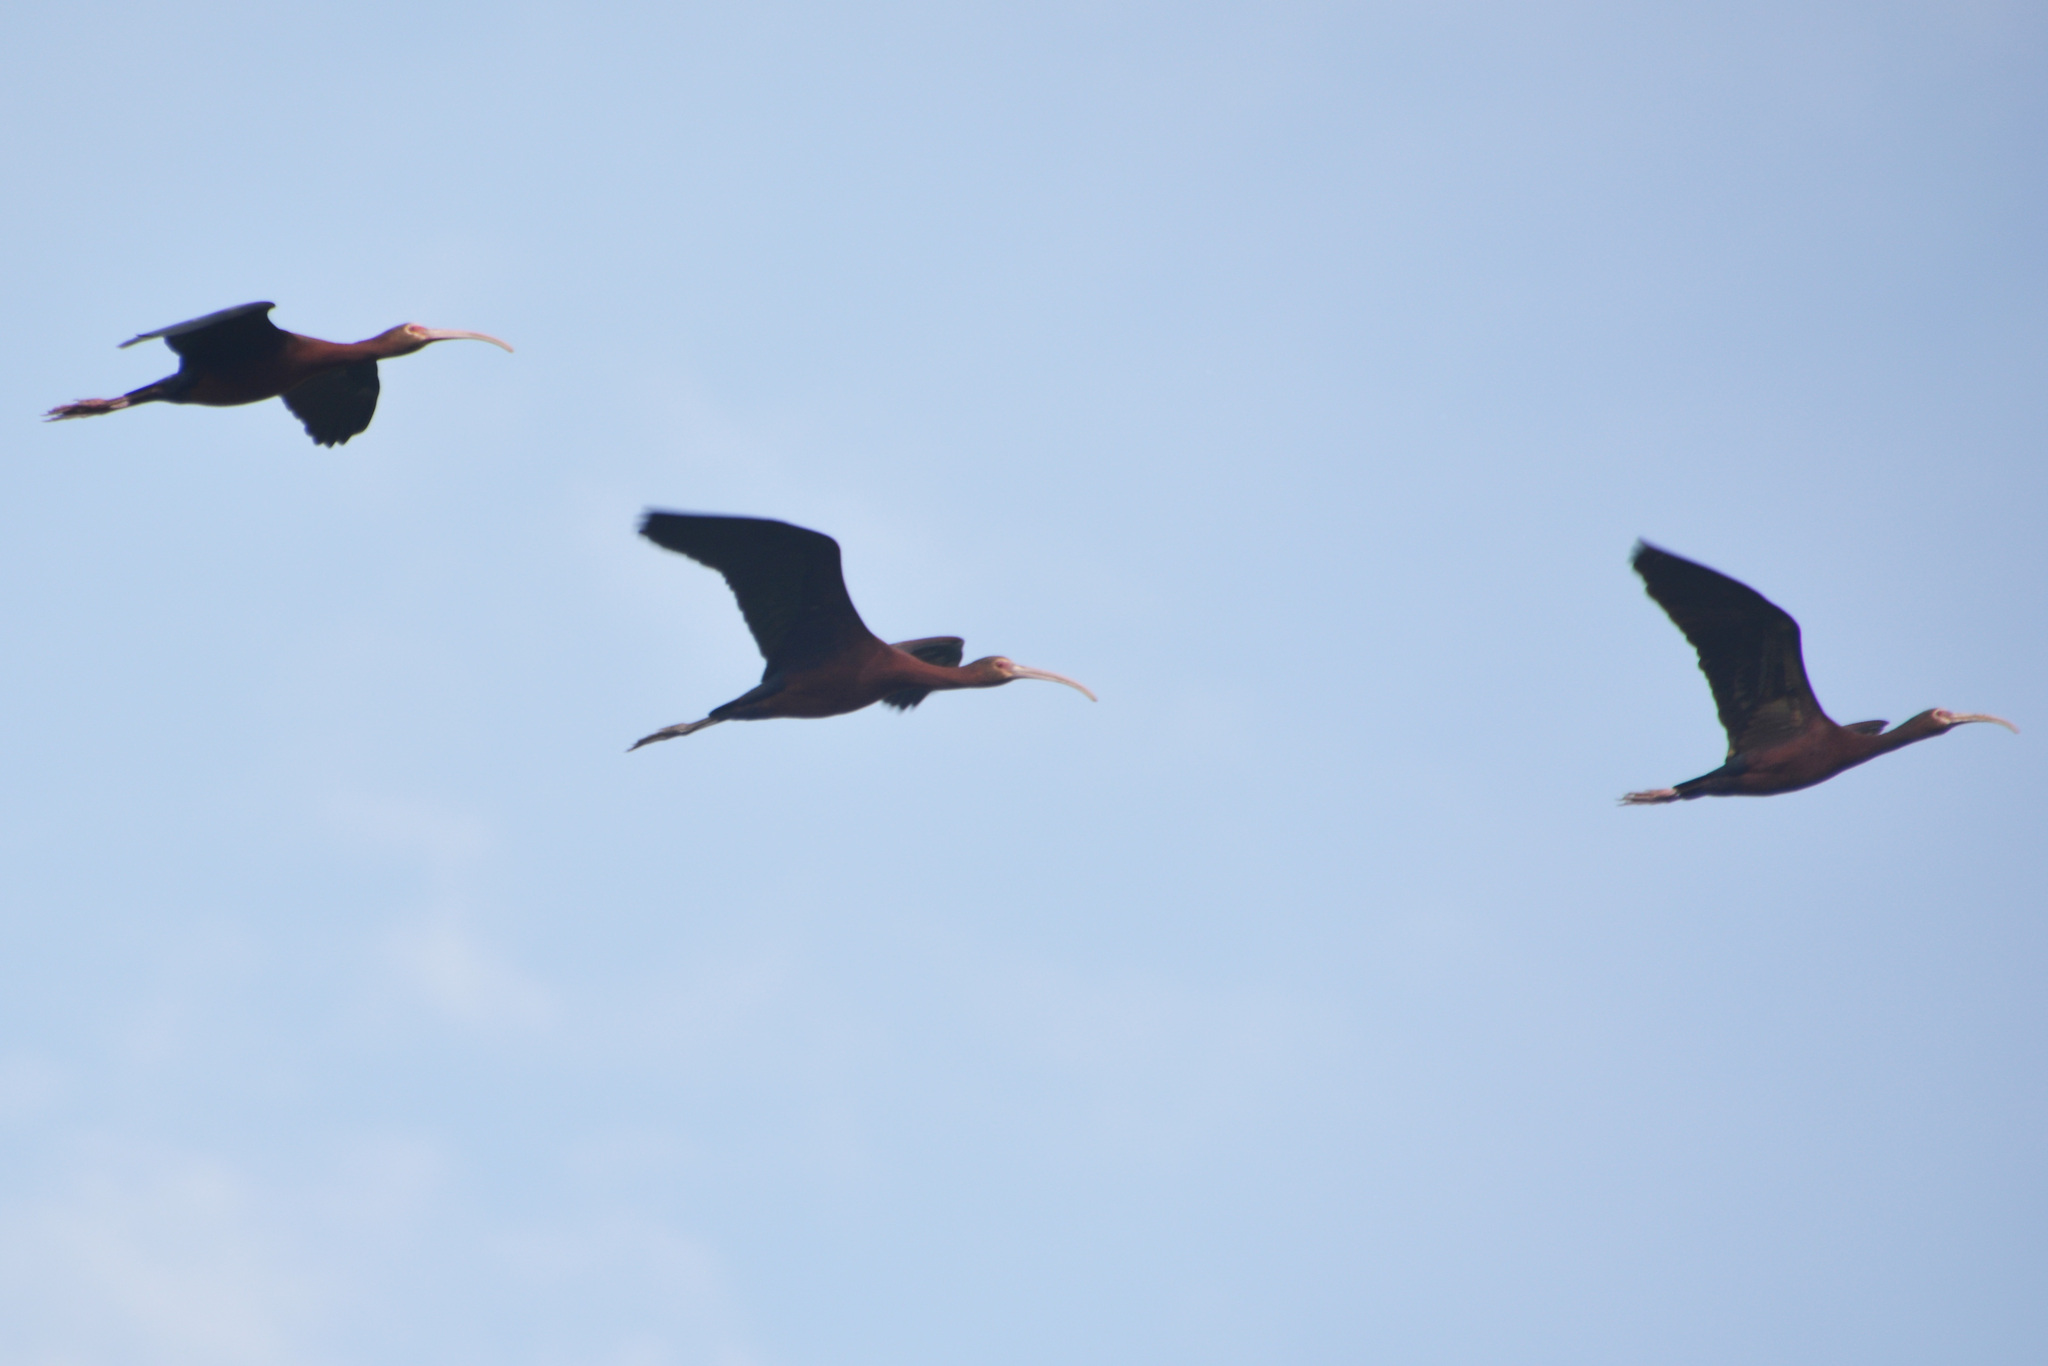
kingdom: Animalia
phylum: Chordata
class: Aves
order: Pelecaniformes
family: Threskiornithidae
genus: Plegadis
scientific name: Plegadis chihi
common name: White-faced ibis
